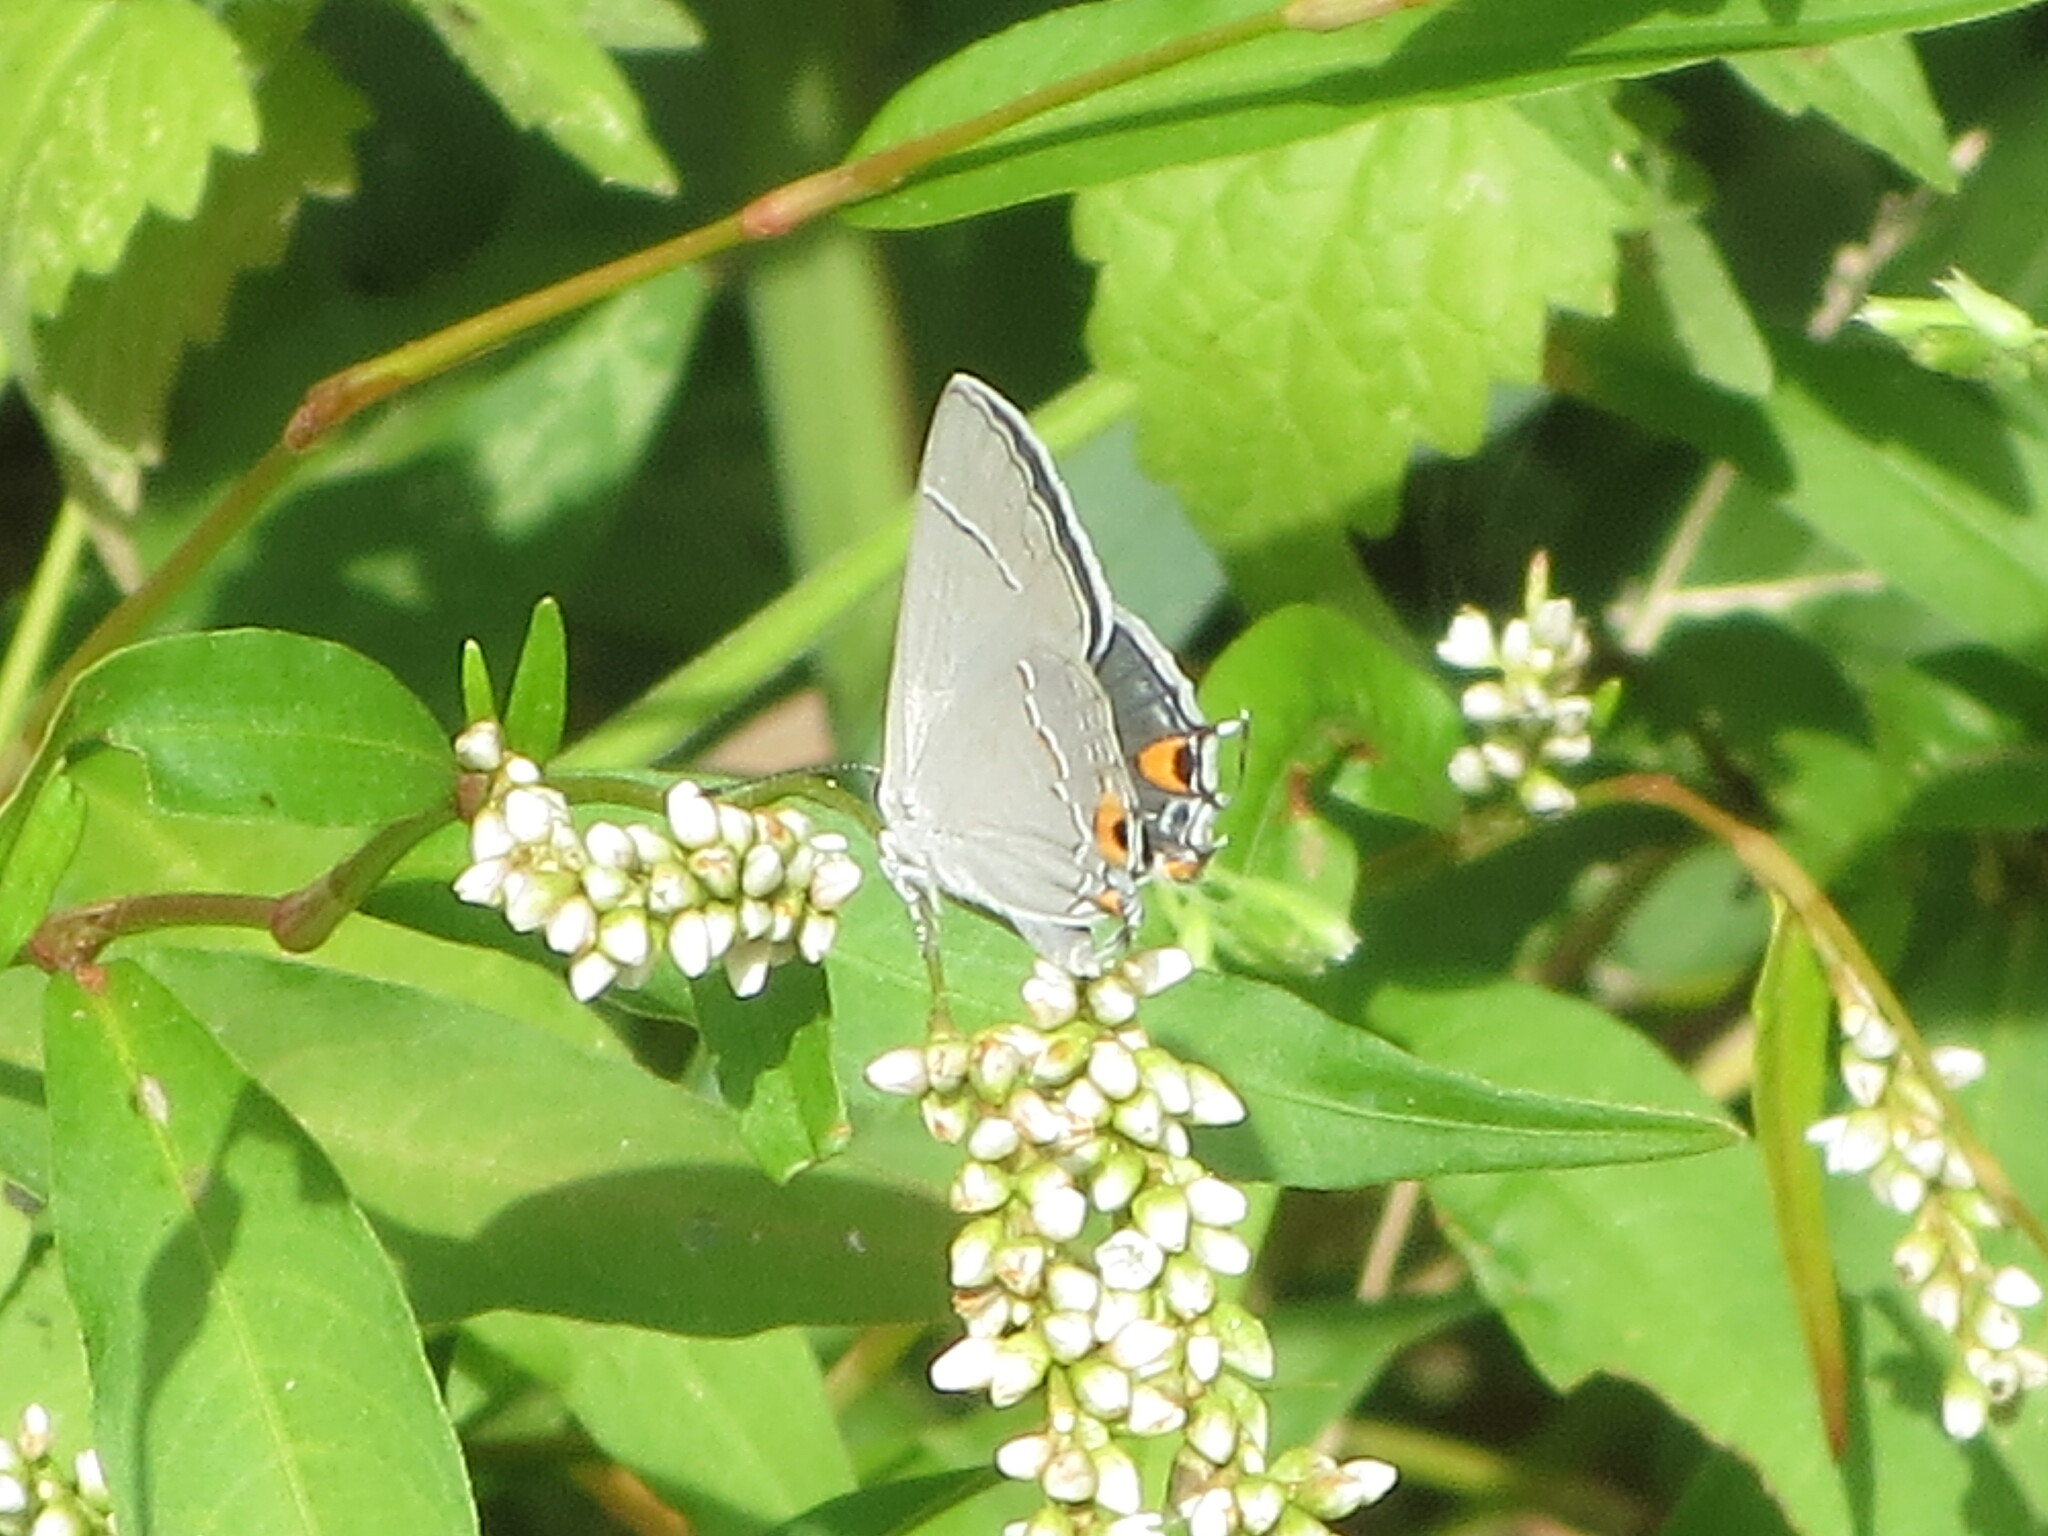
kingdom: Animalia
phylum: Arthropoda
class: Insecta
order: Lepidoptera
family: Lycaenidae
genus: Strymon
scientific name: Strymon melinus
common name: Gray hairstreak
